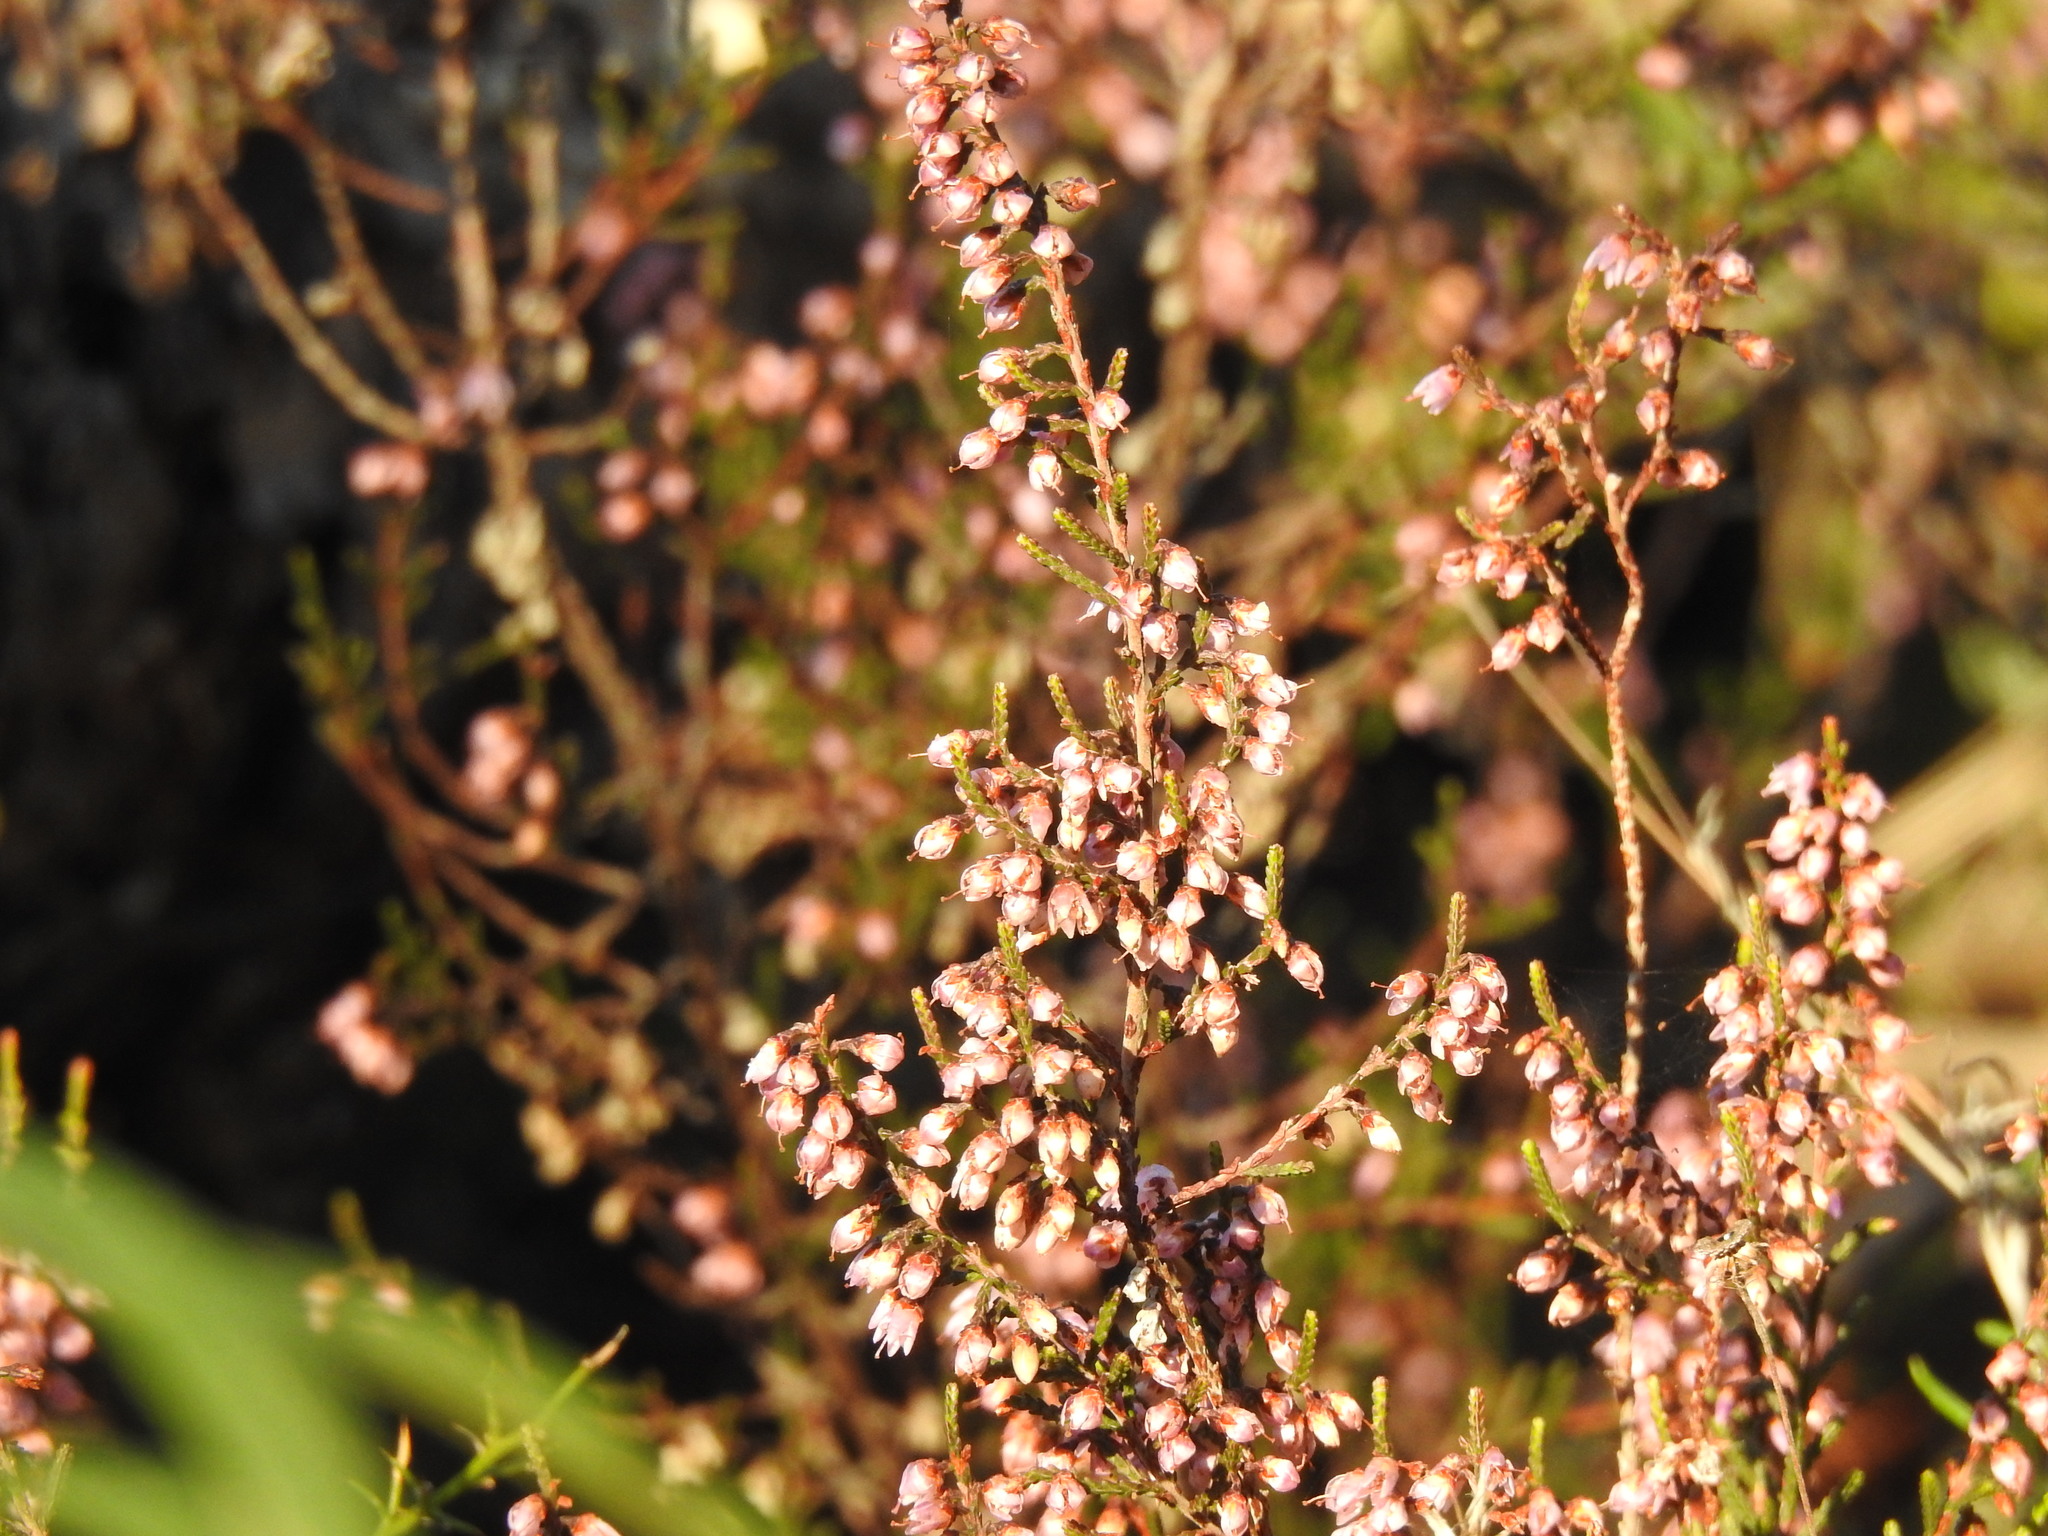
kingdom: Plantae
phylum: Tracheophyta
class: Magnoliopsida
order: Ericales
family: Ericaceae
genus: Calluna
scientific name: Calluna vulgaris
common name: Heather
